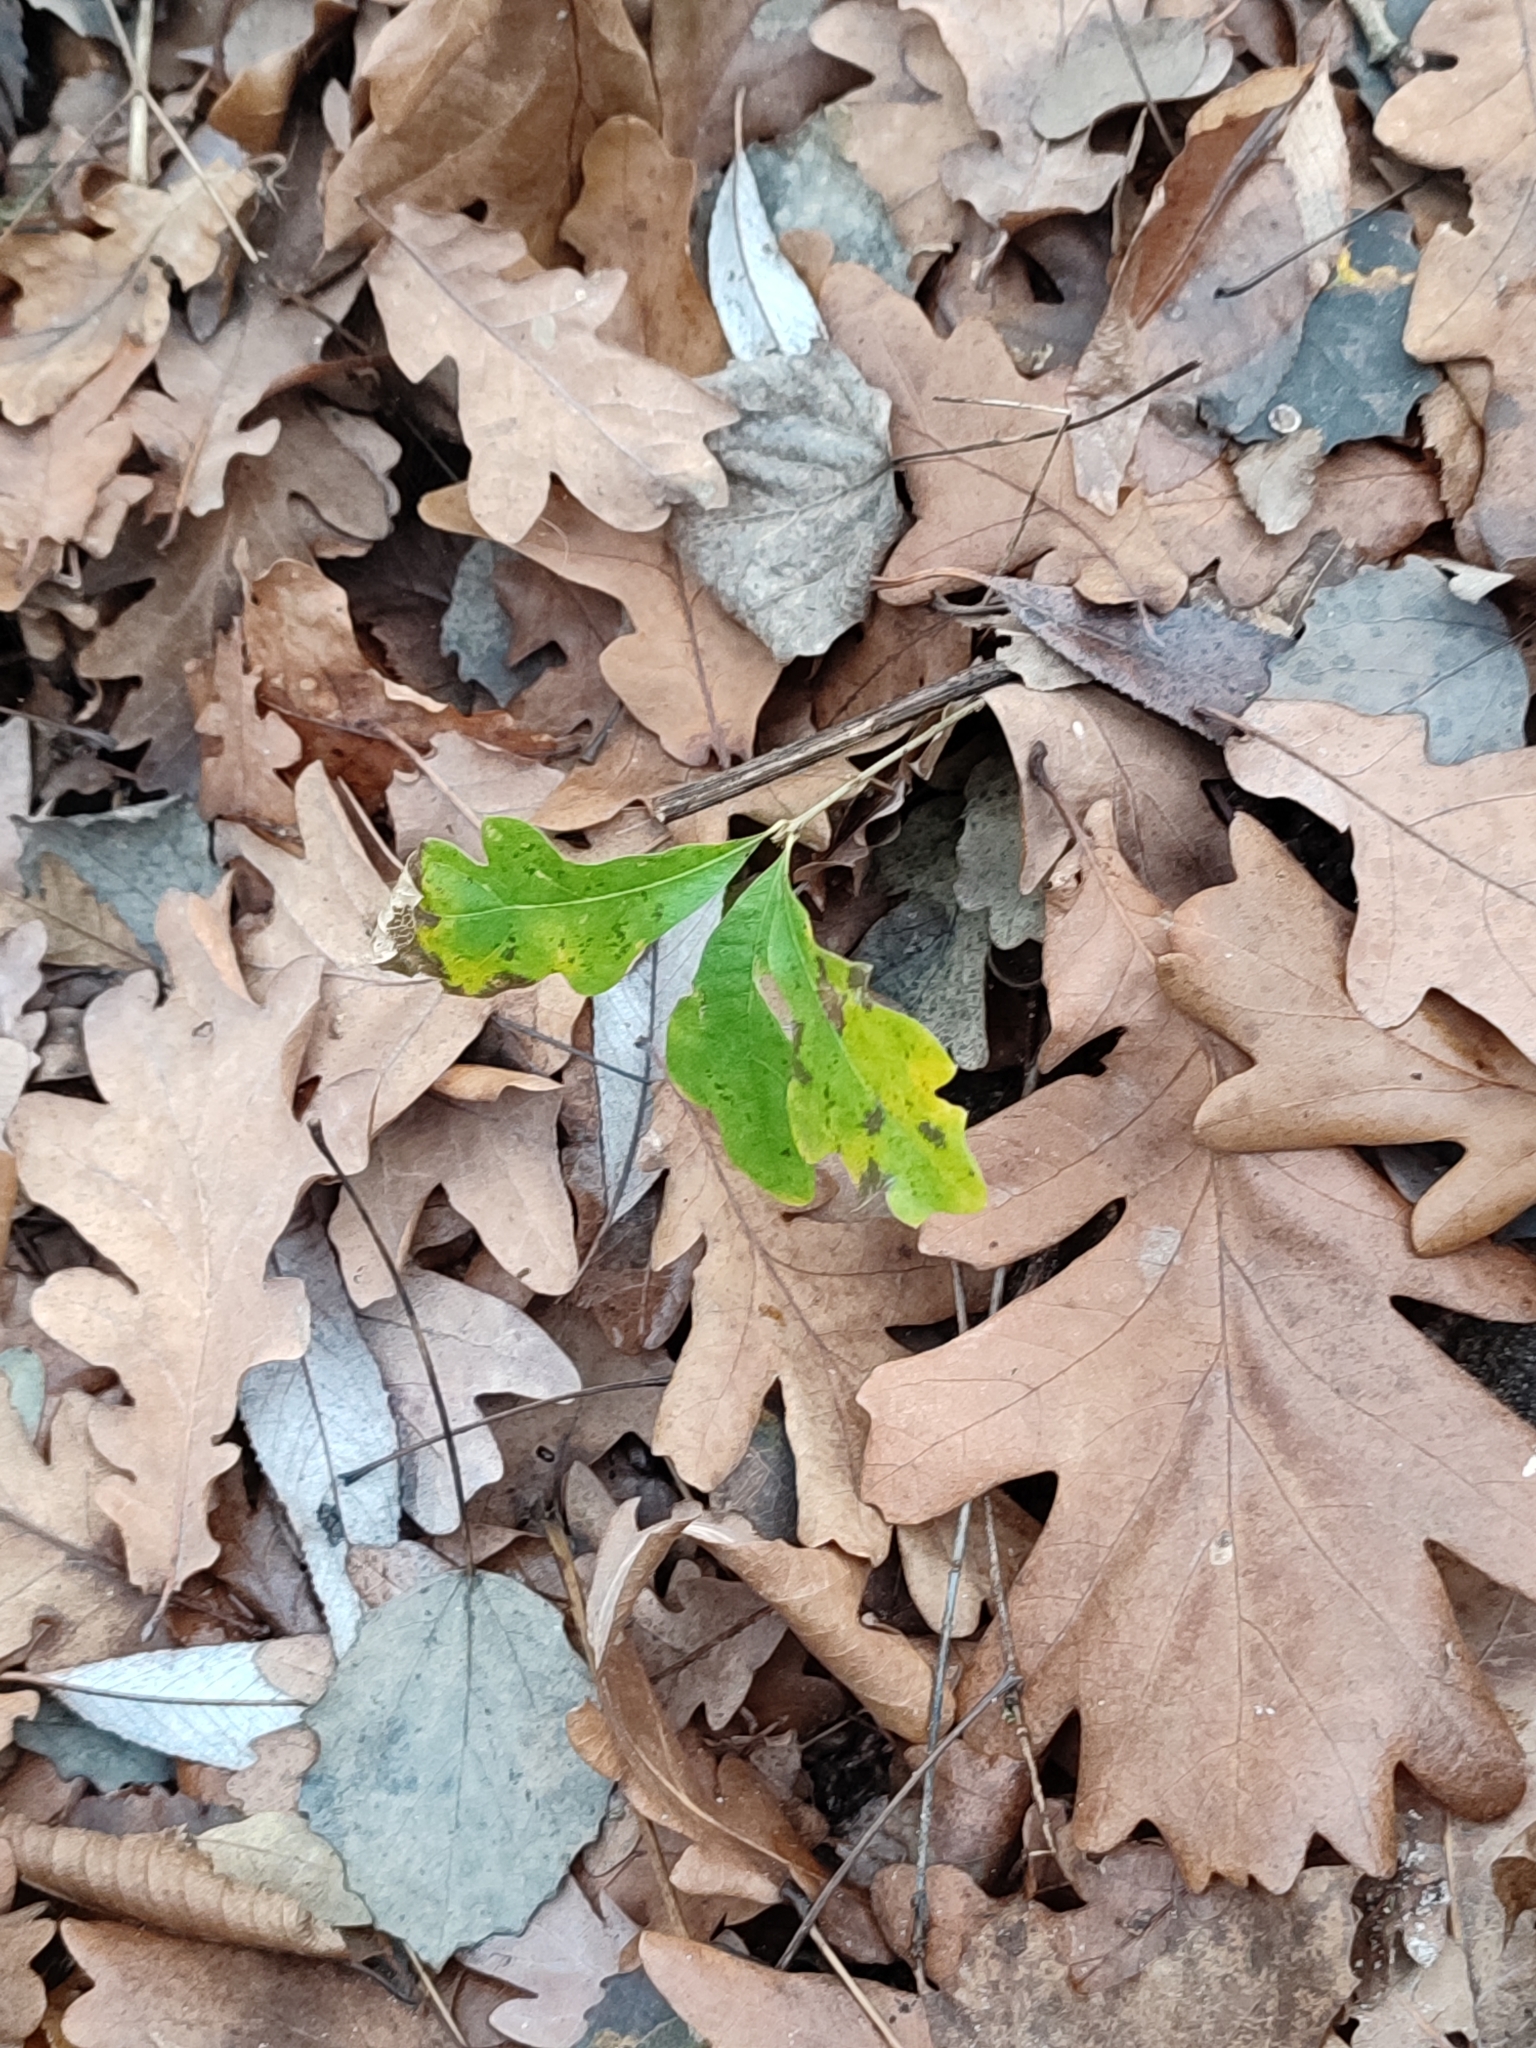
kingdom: Plantae
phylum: Tracheophyta
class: Magnoliopsida
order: Fagales
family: Fagaceae
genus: Quercus
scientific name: Quercus robur
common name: Pedunculate oak
